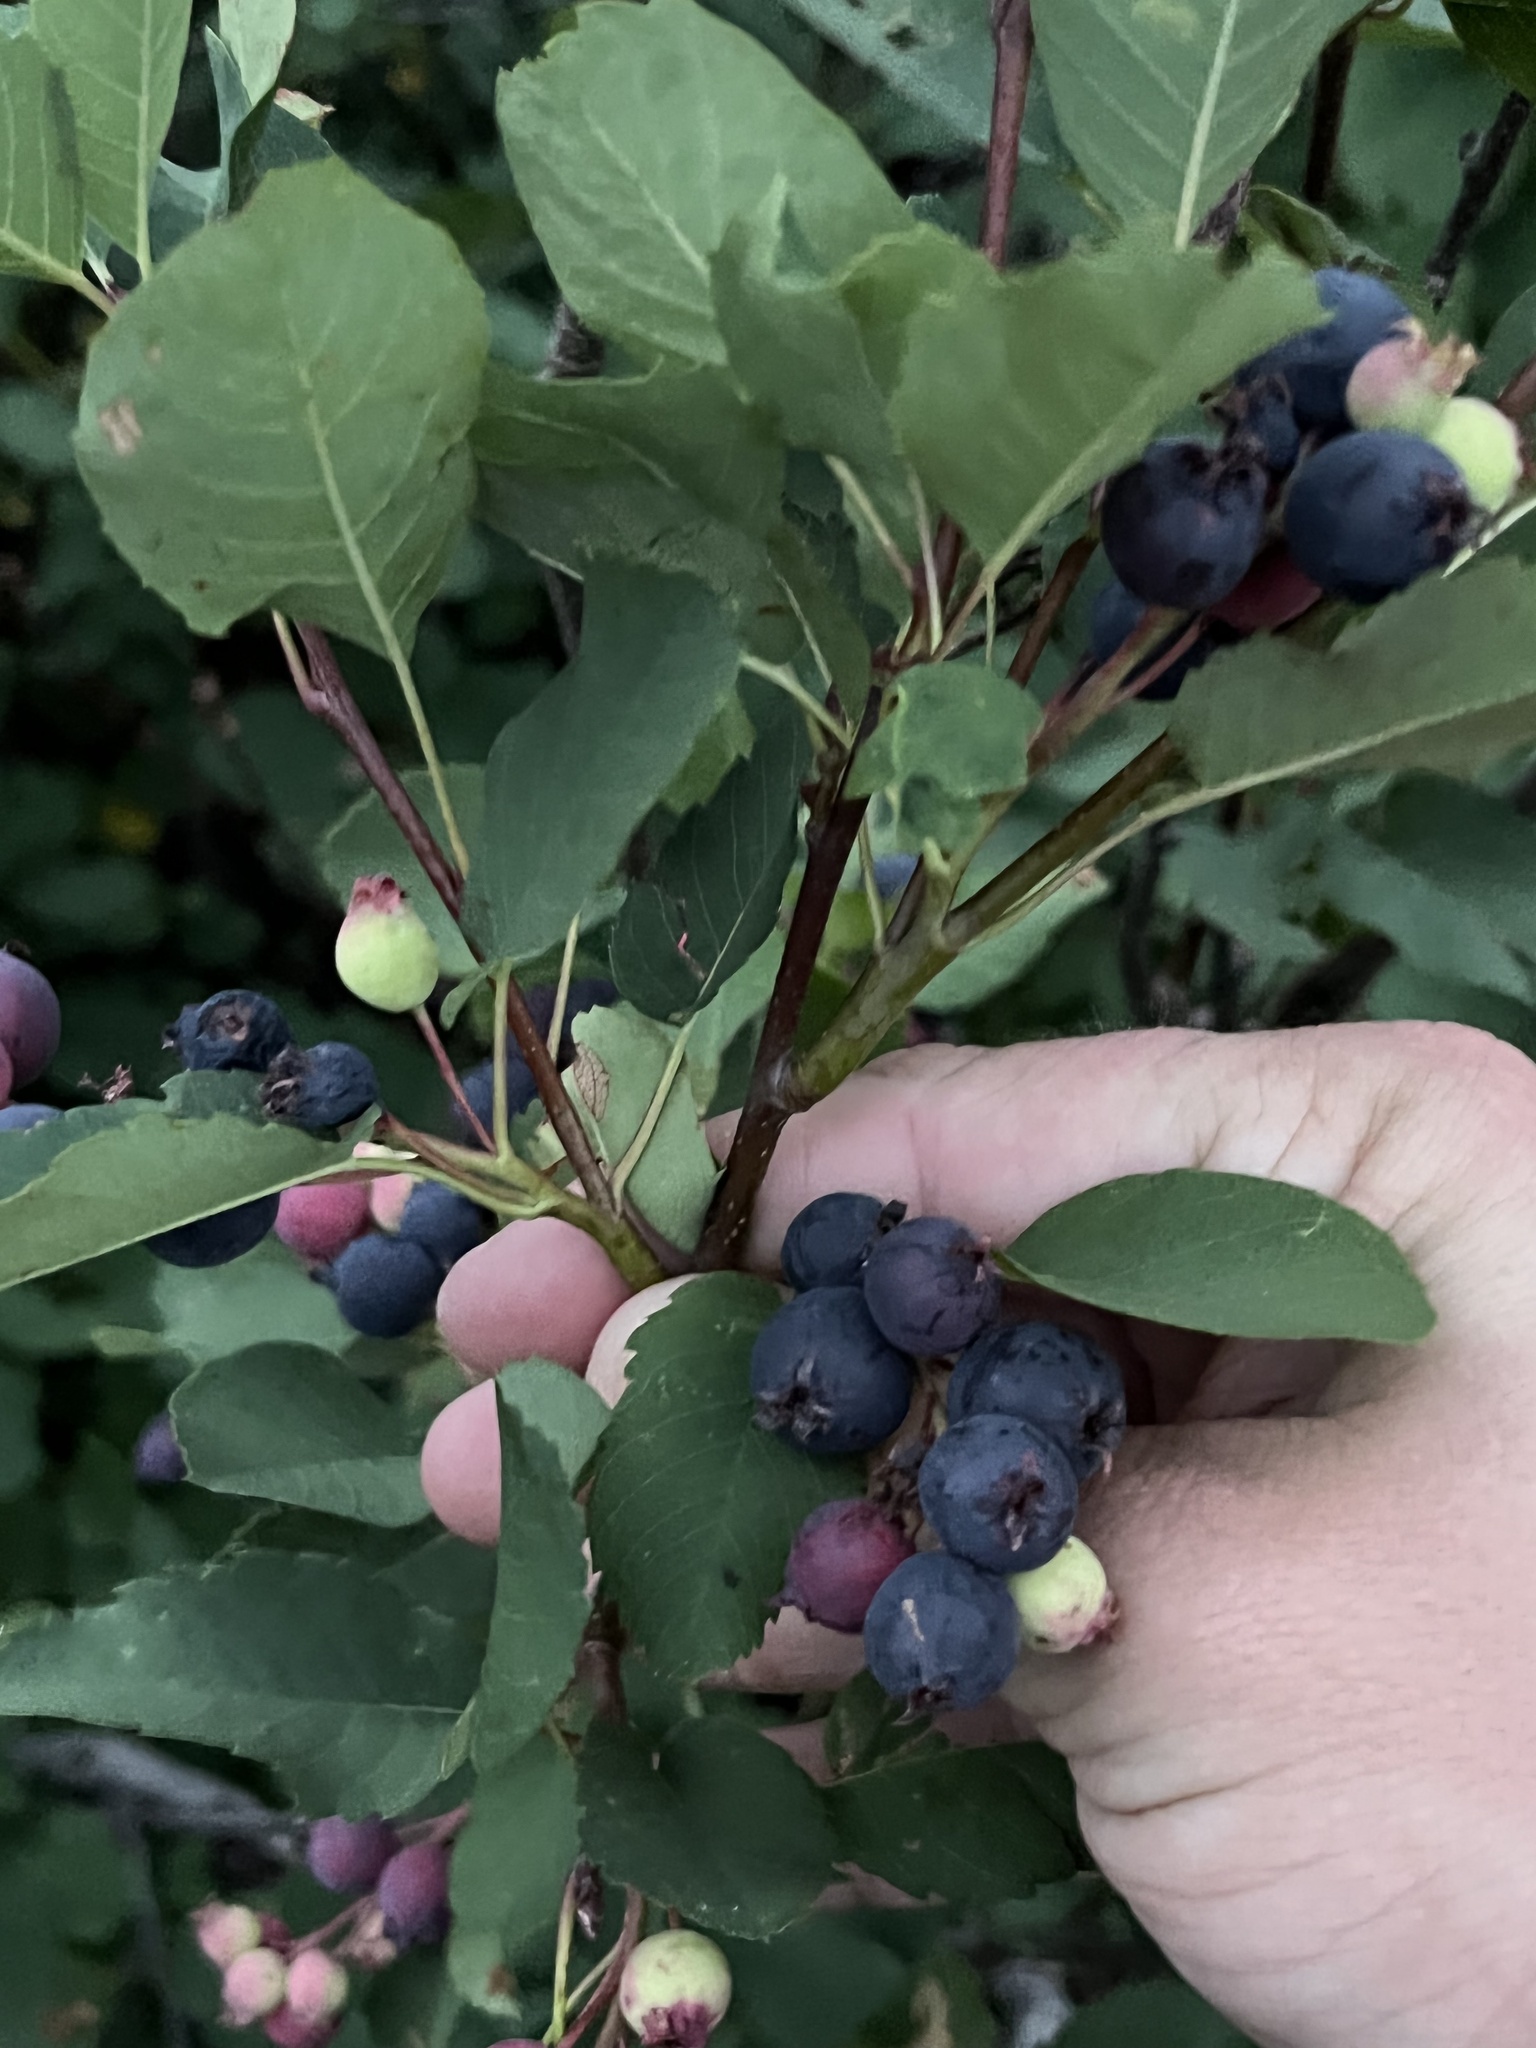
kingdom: Plantae
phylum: Tracheophyta
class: Magnoliopsida
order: Rosales
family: Rosaceae
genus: Amelanchier
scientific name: Amelanchier alnifolia
